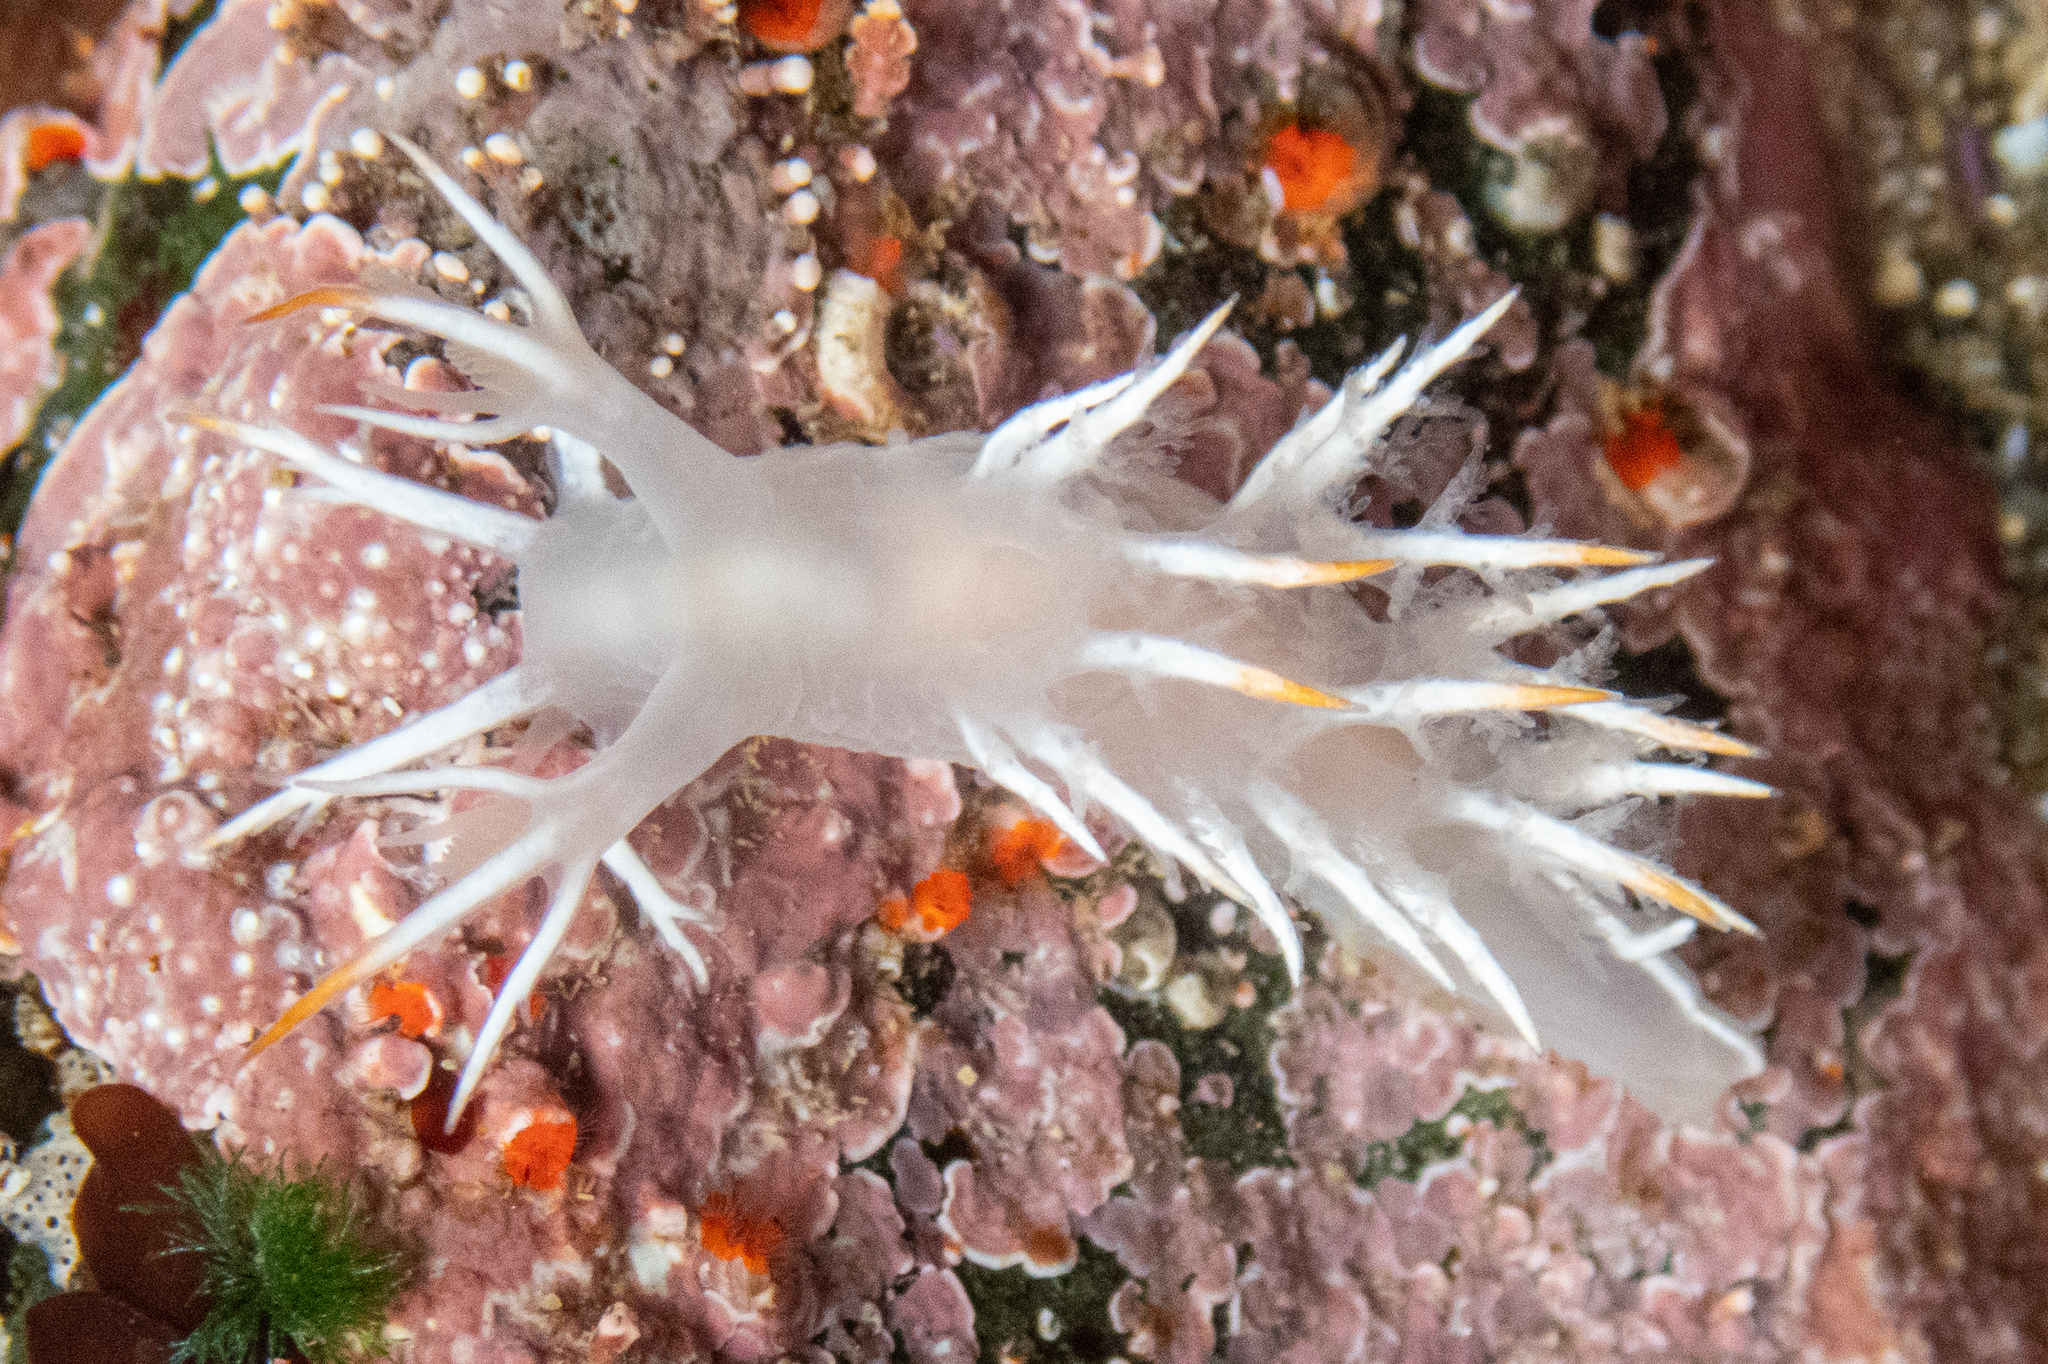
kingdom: Animalia
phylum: Mollusca
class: Gastropoda
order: Nudibranchia
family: Dendronotidae
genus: Dendronotus
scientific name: Dendronotus albus
